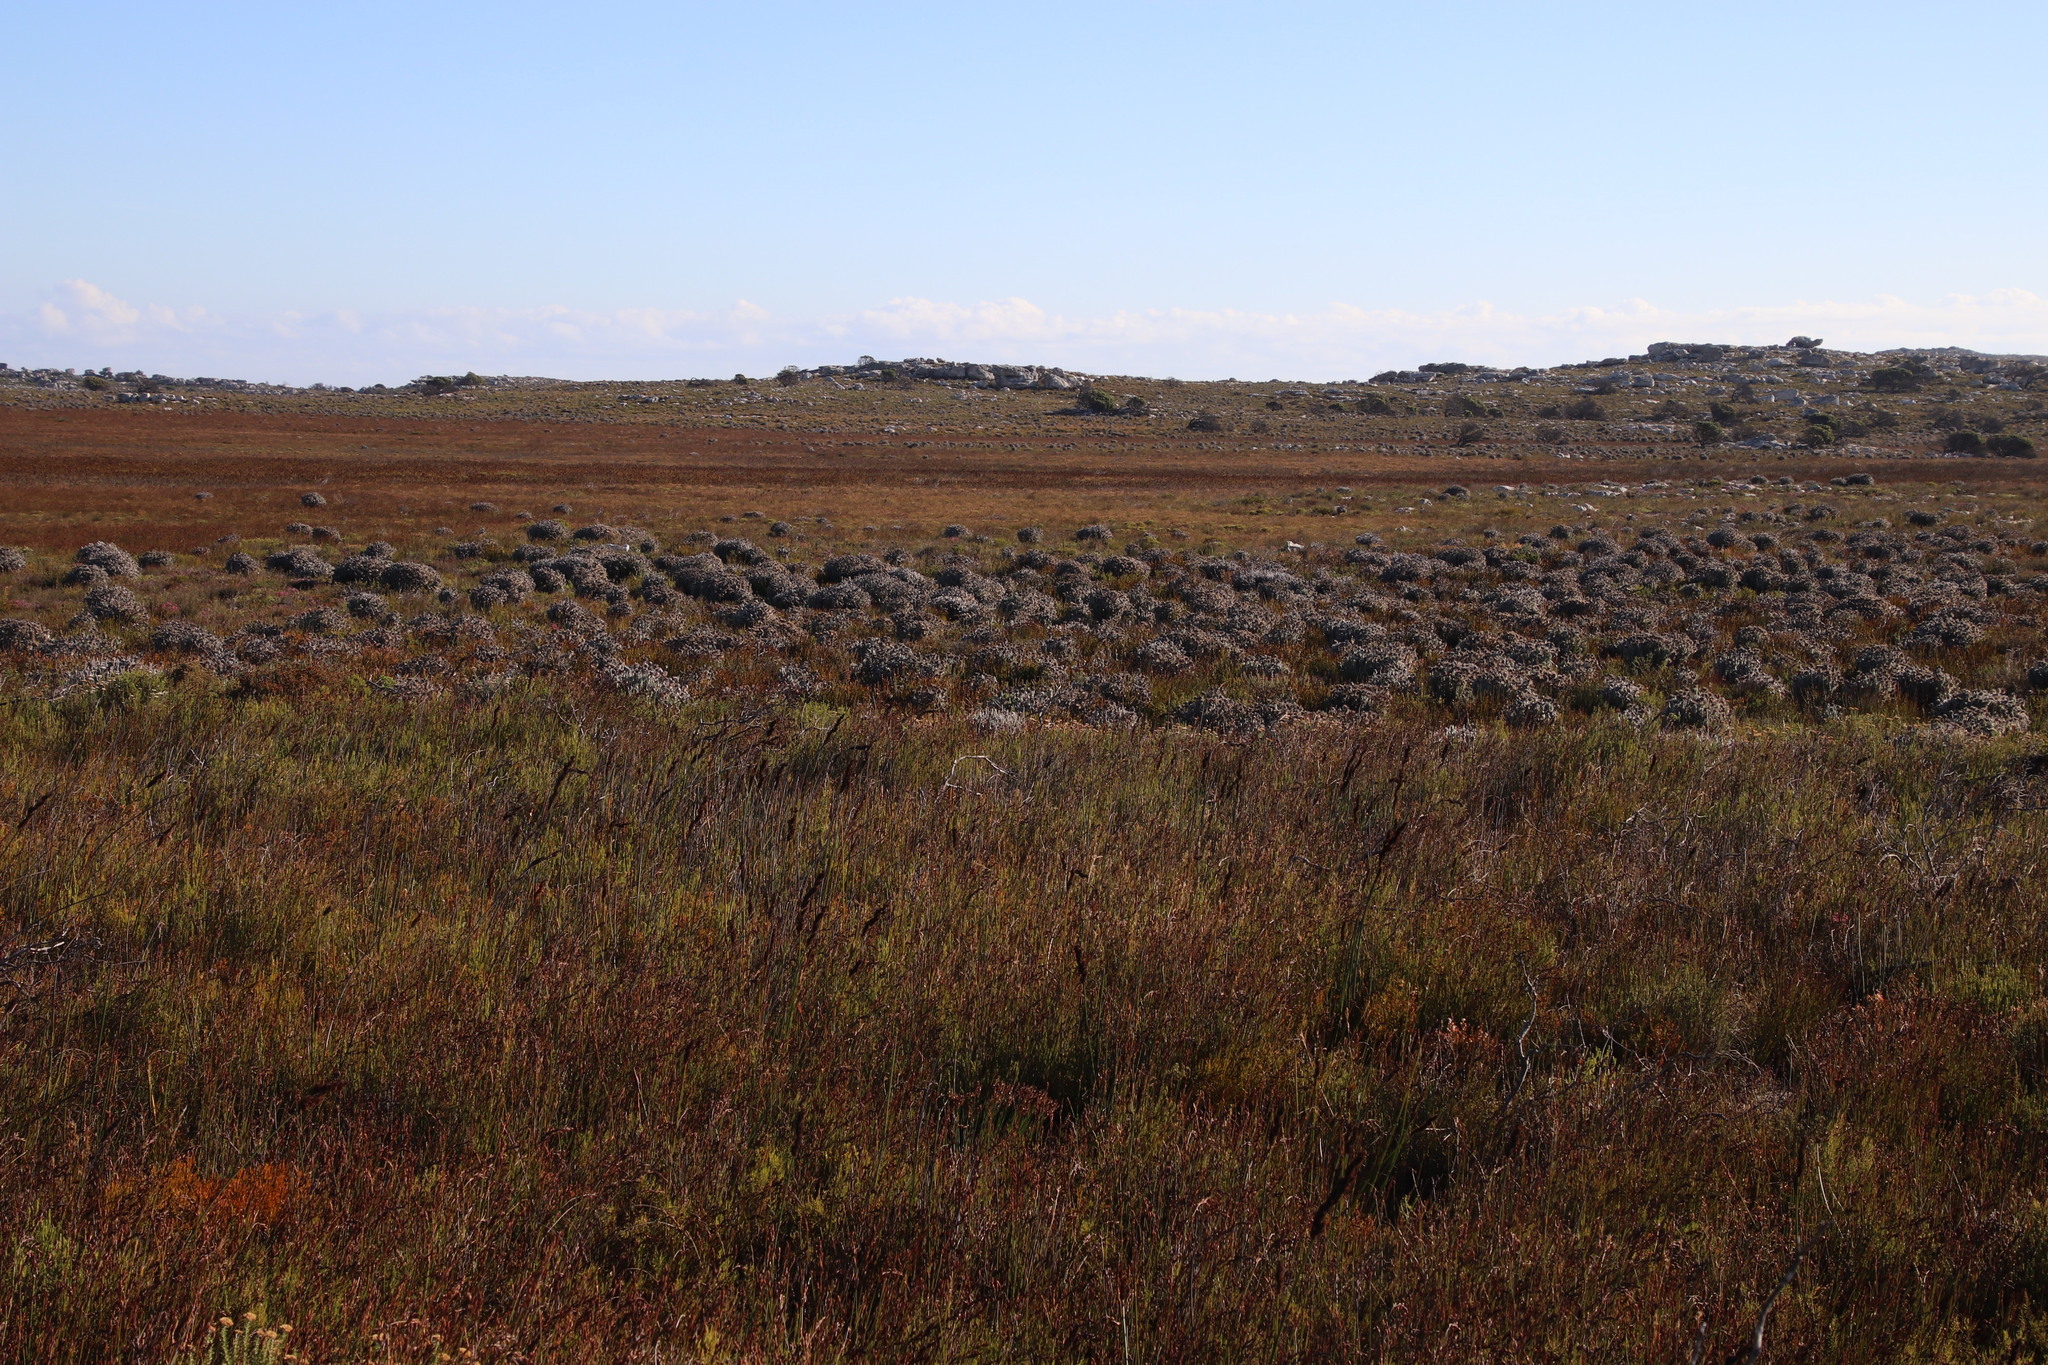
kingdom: Plantae
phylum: Tracheophyta
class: Magnoliopsida
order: Asterales
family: Asteraceae
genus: Syncarpha
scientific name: Syncarpha vestita
